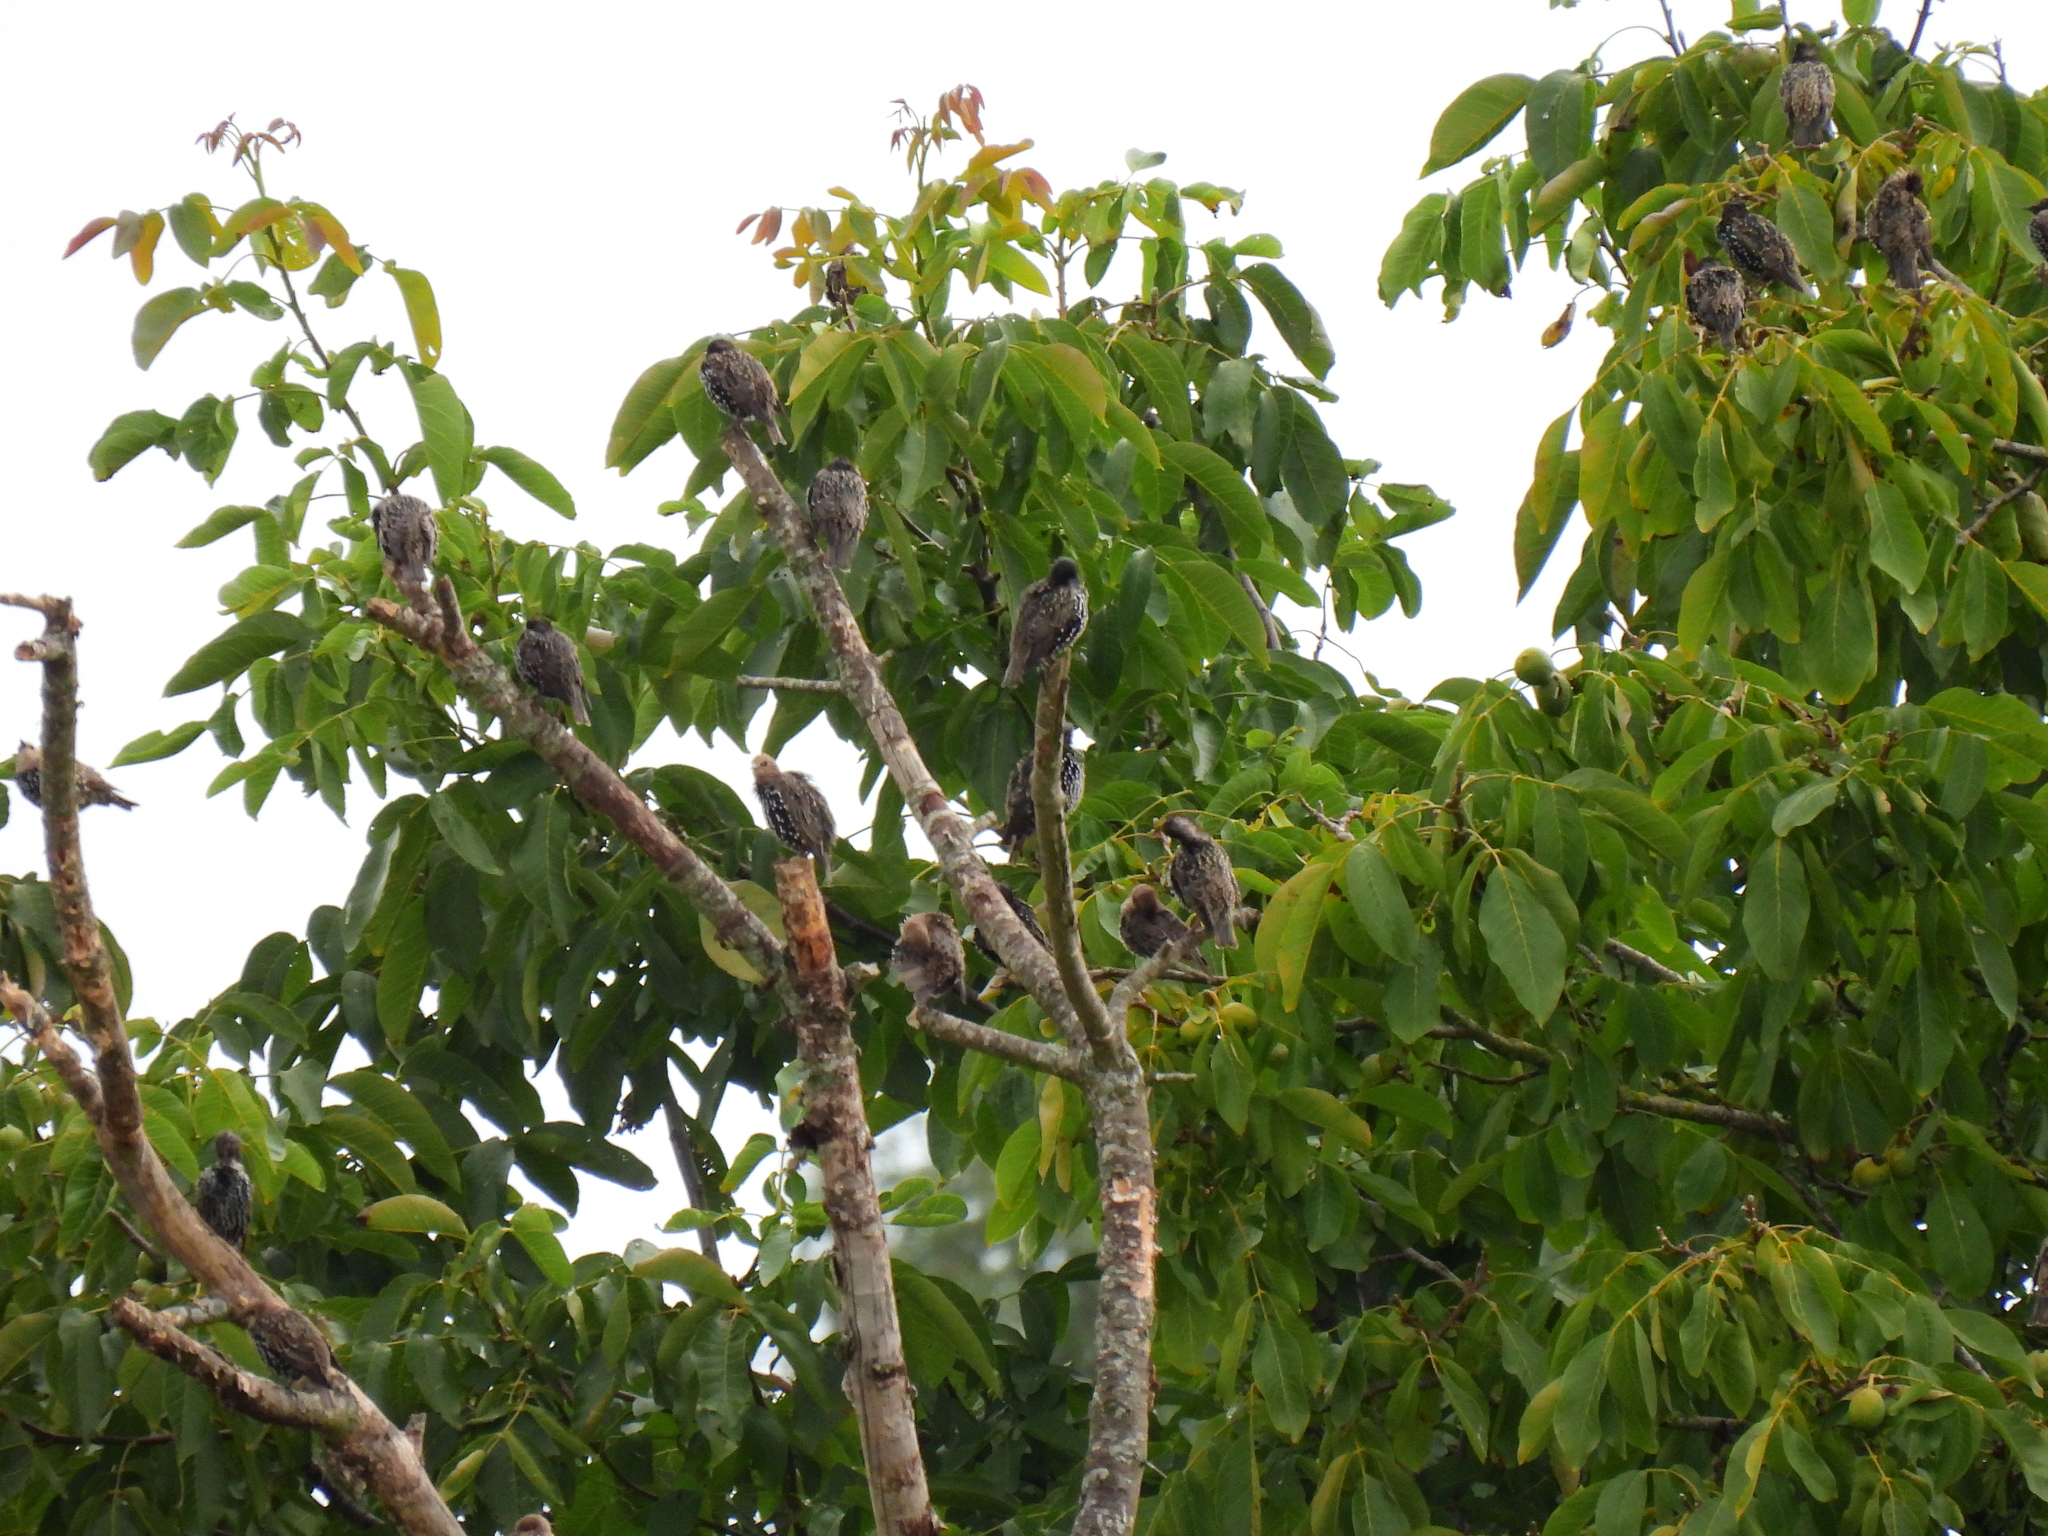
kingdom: Animalia
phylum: Chordata
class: Aves
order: Passeriformes
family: Sturnidae
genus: Sturnus
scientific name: Sturnus vulgaris
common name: Common starling
